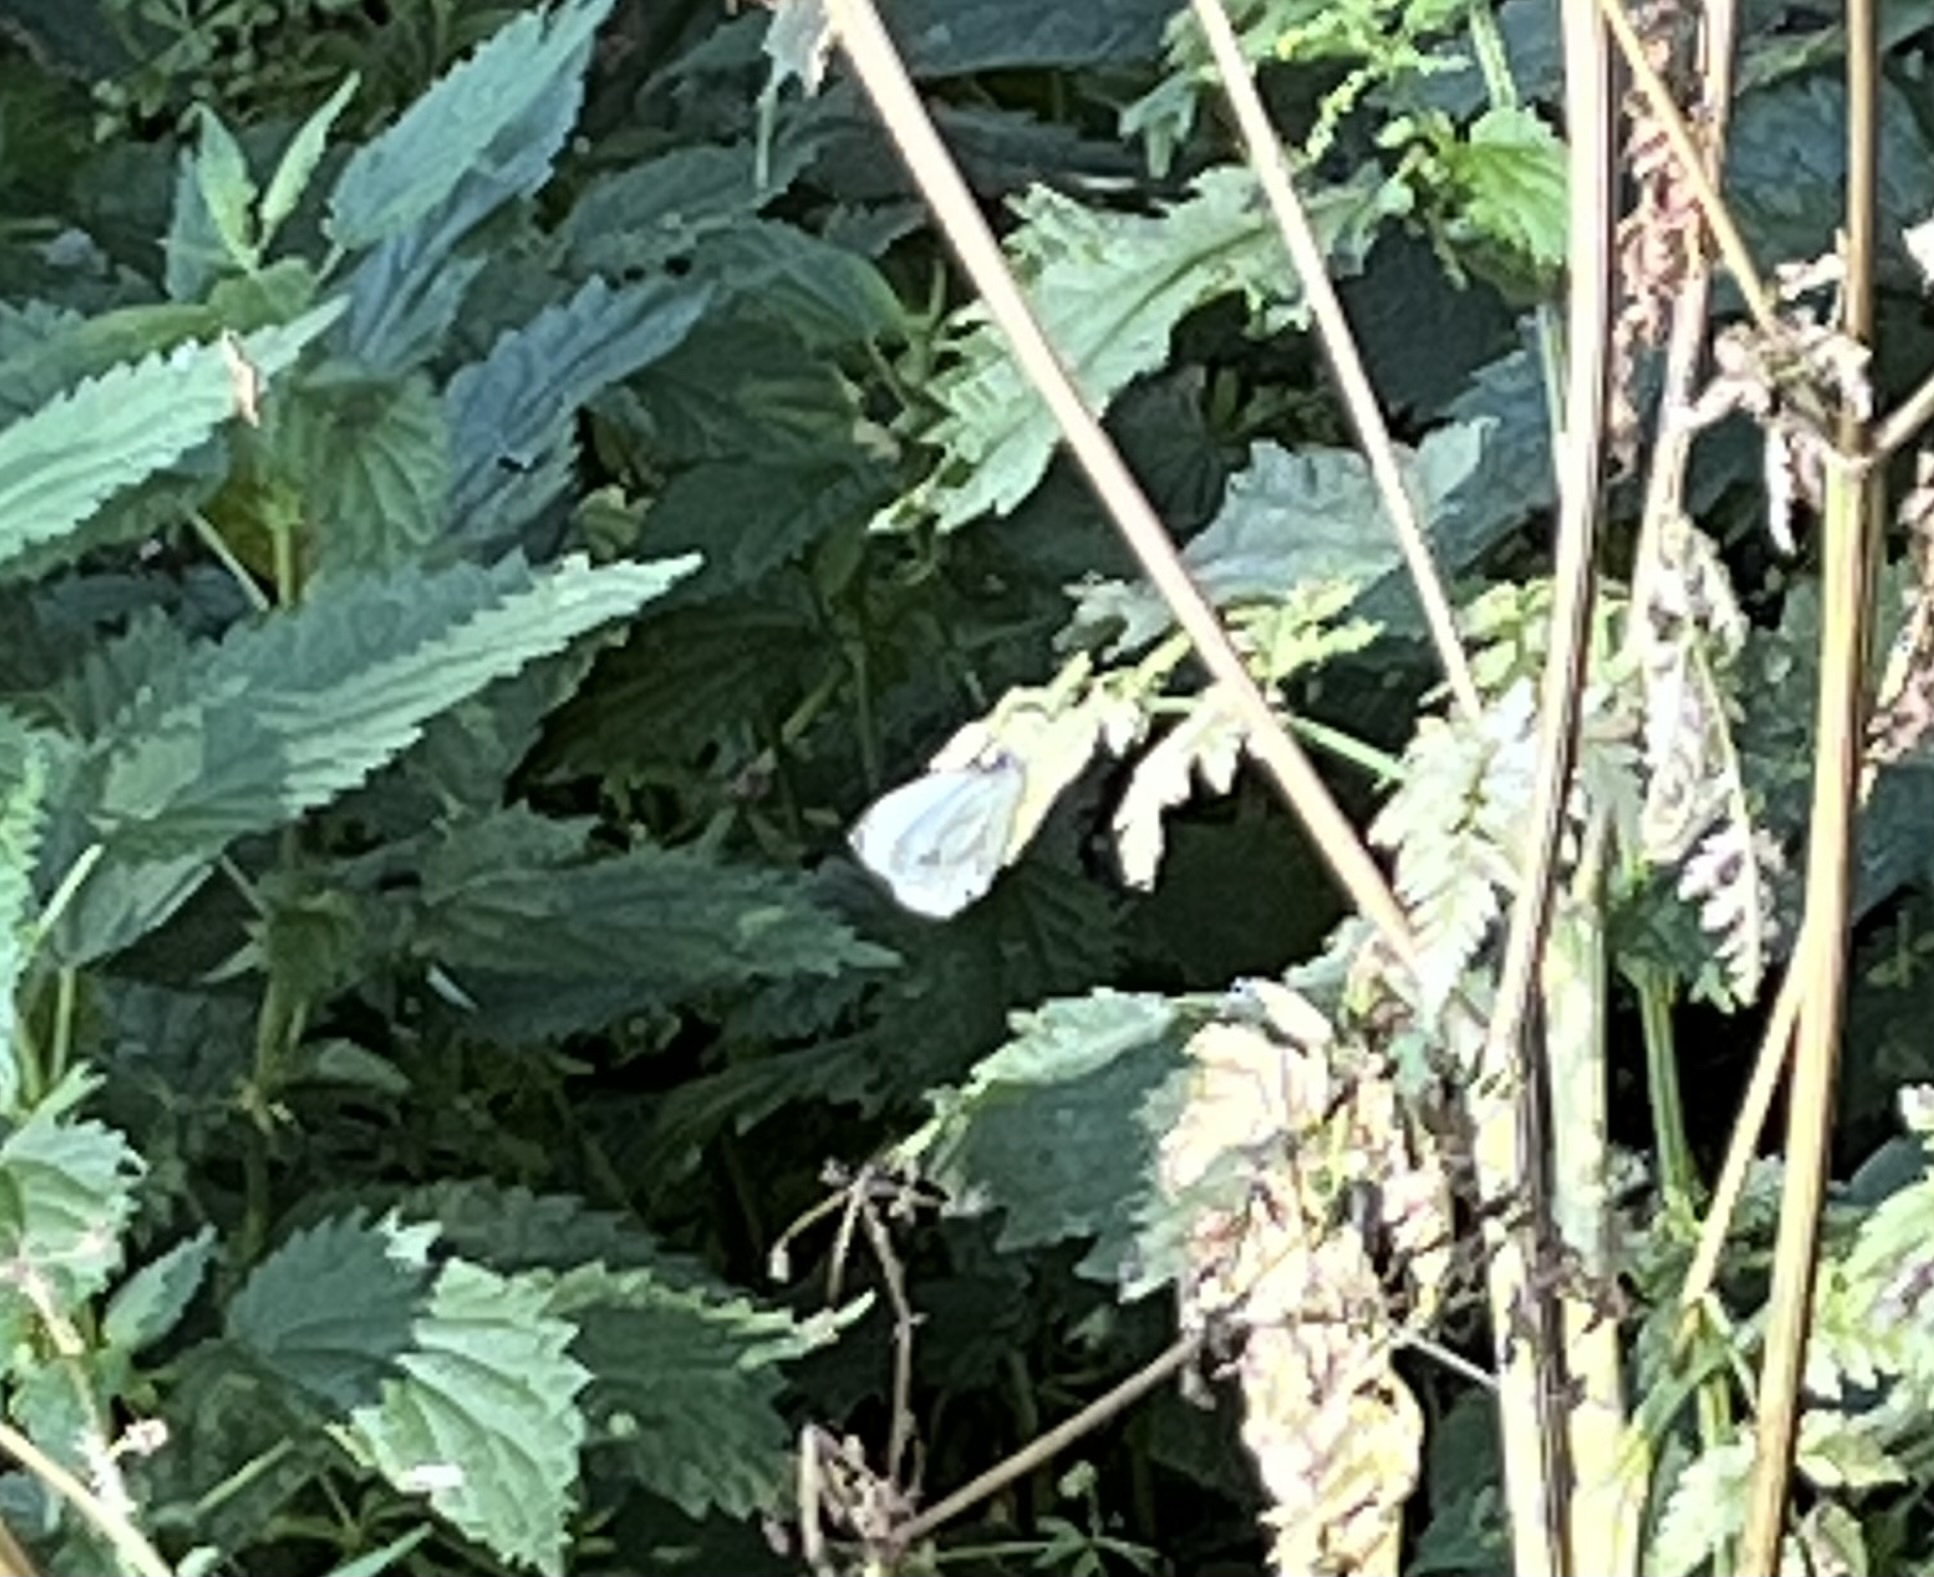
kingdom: Animalia
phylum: Arthropoda
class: Insecta
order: Lepidoptera
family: Pieridae
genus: Pieris
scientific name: Pieris napi
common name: Green-veined white
